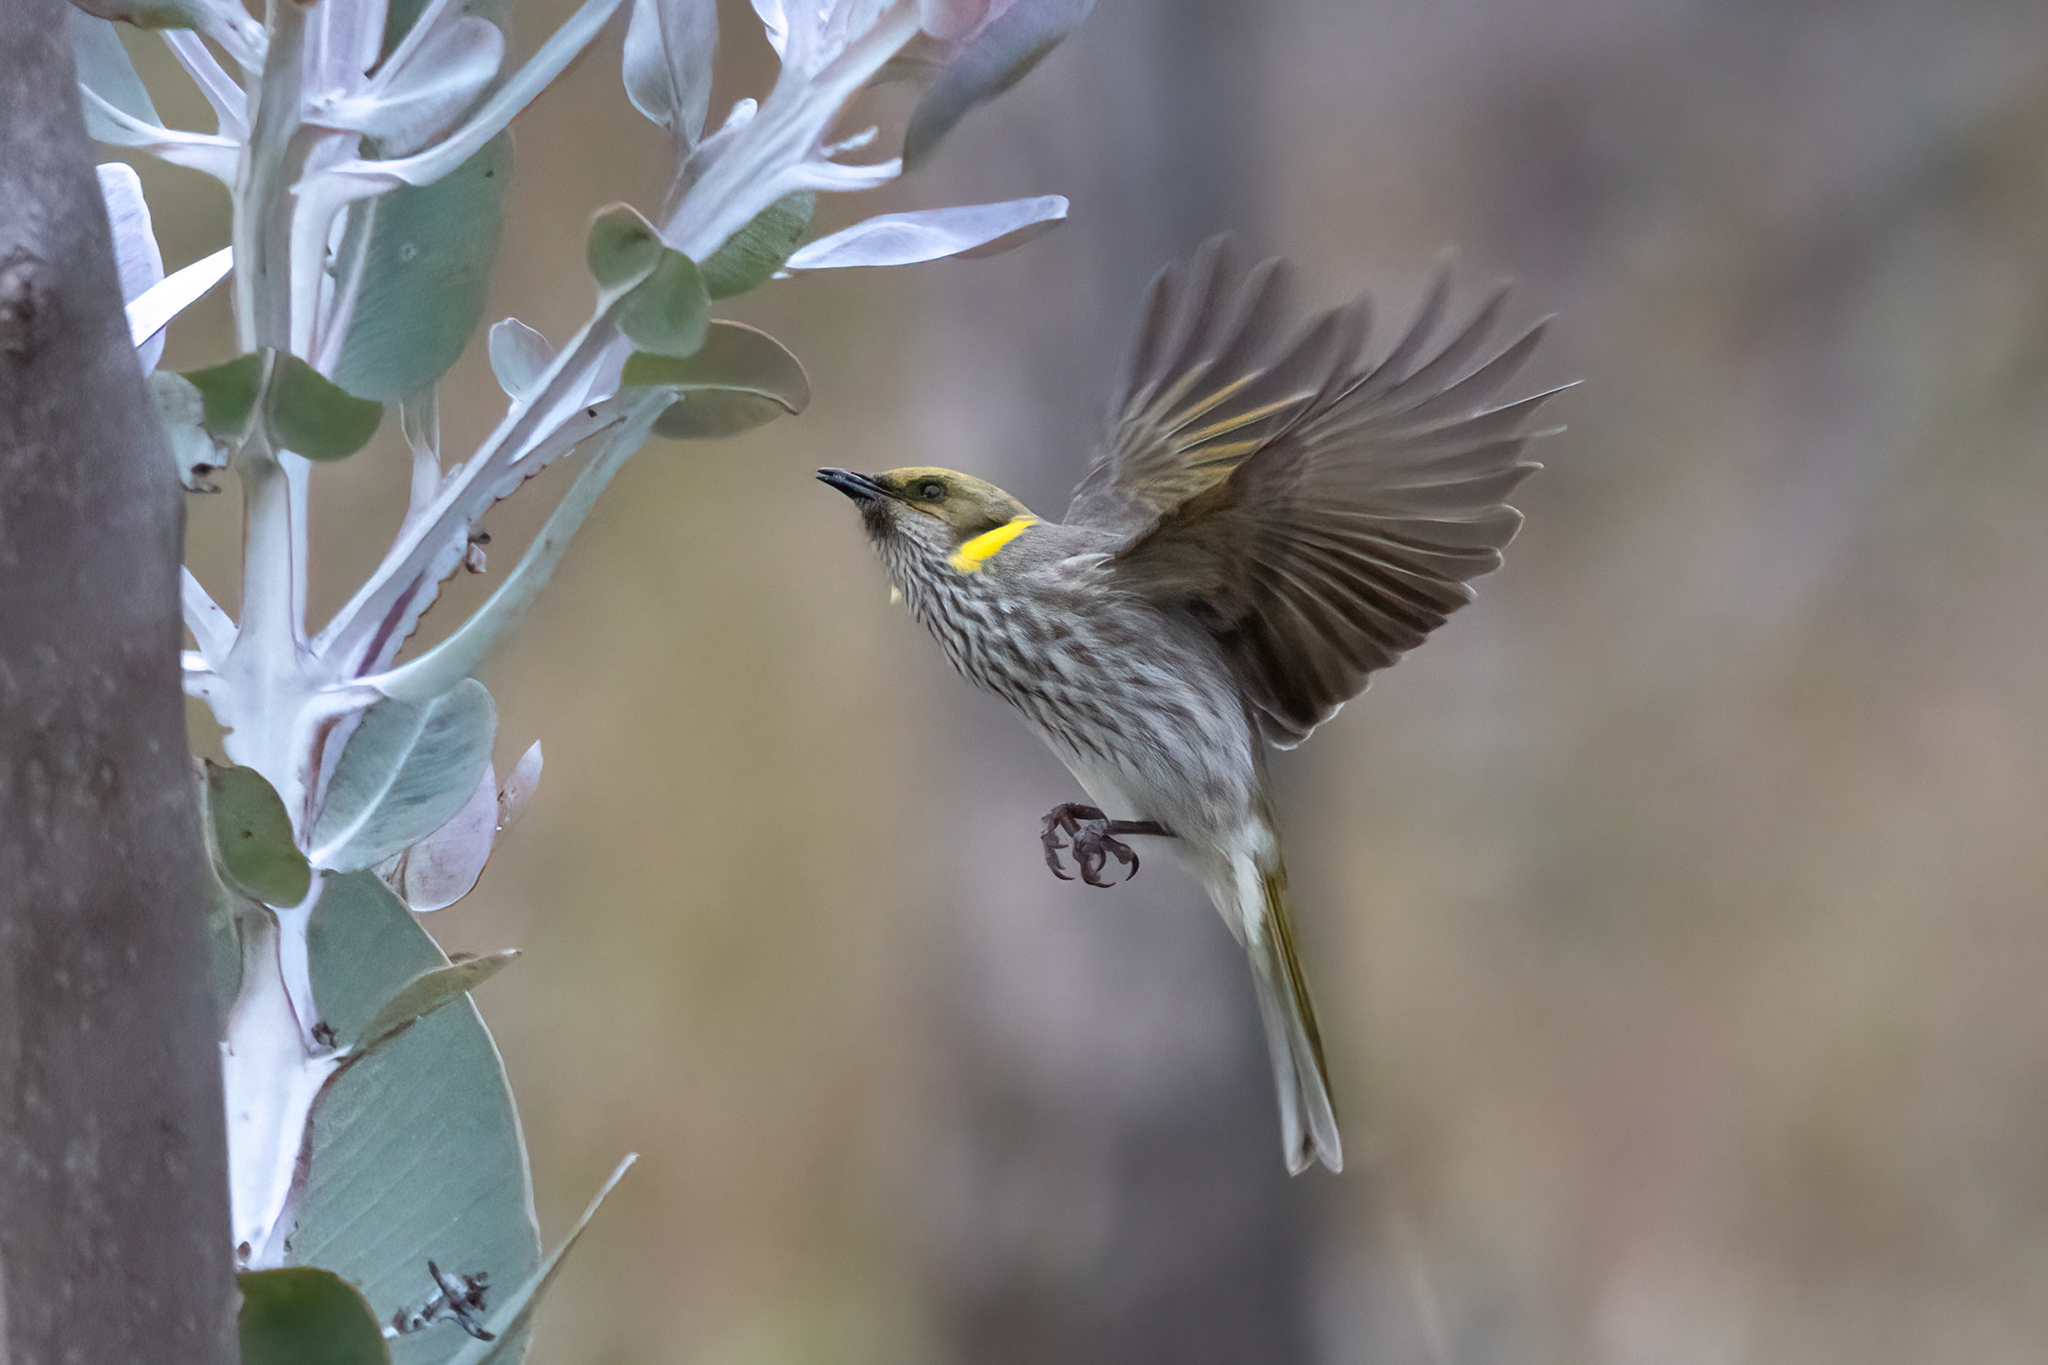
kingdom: Animalia
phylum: Chordata
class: Aves
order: Passeriformes
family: Meliphagidae
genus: Ptilotula
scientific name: Ptilotula ornata
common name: Yellow-plumed honeyeater
